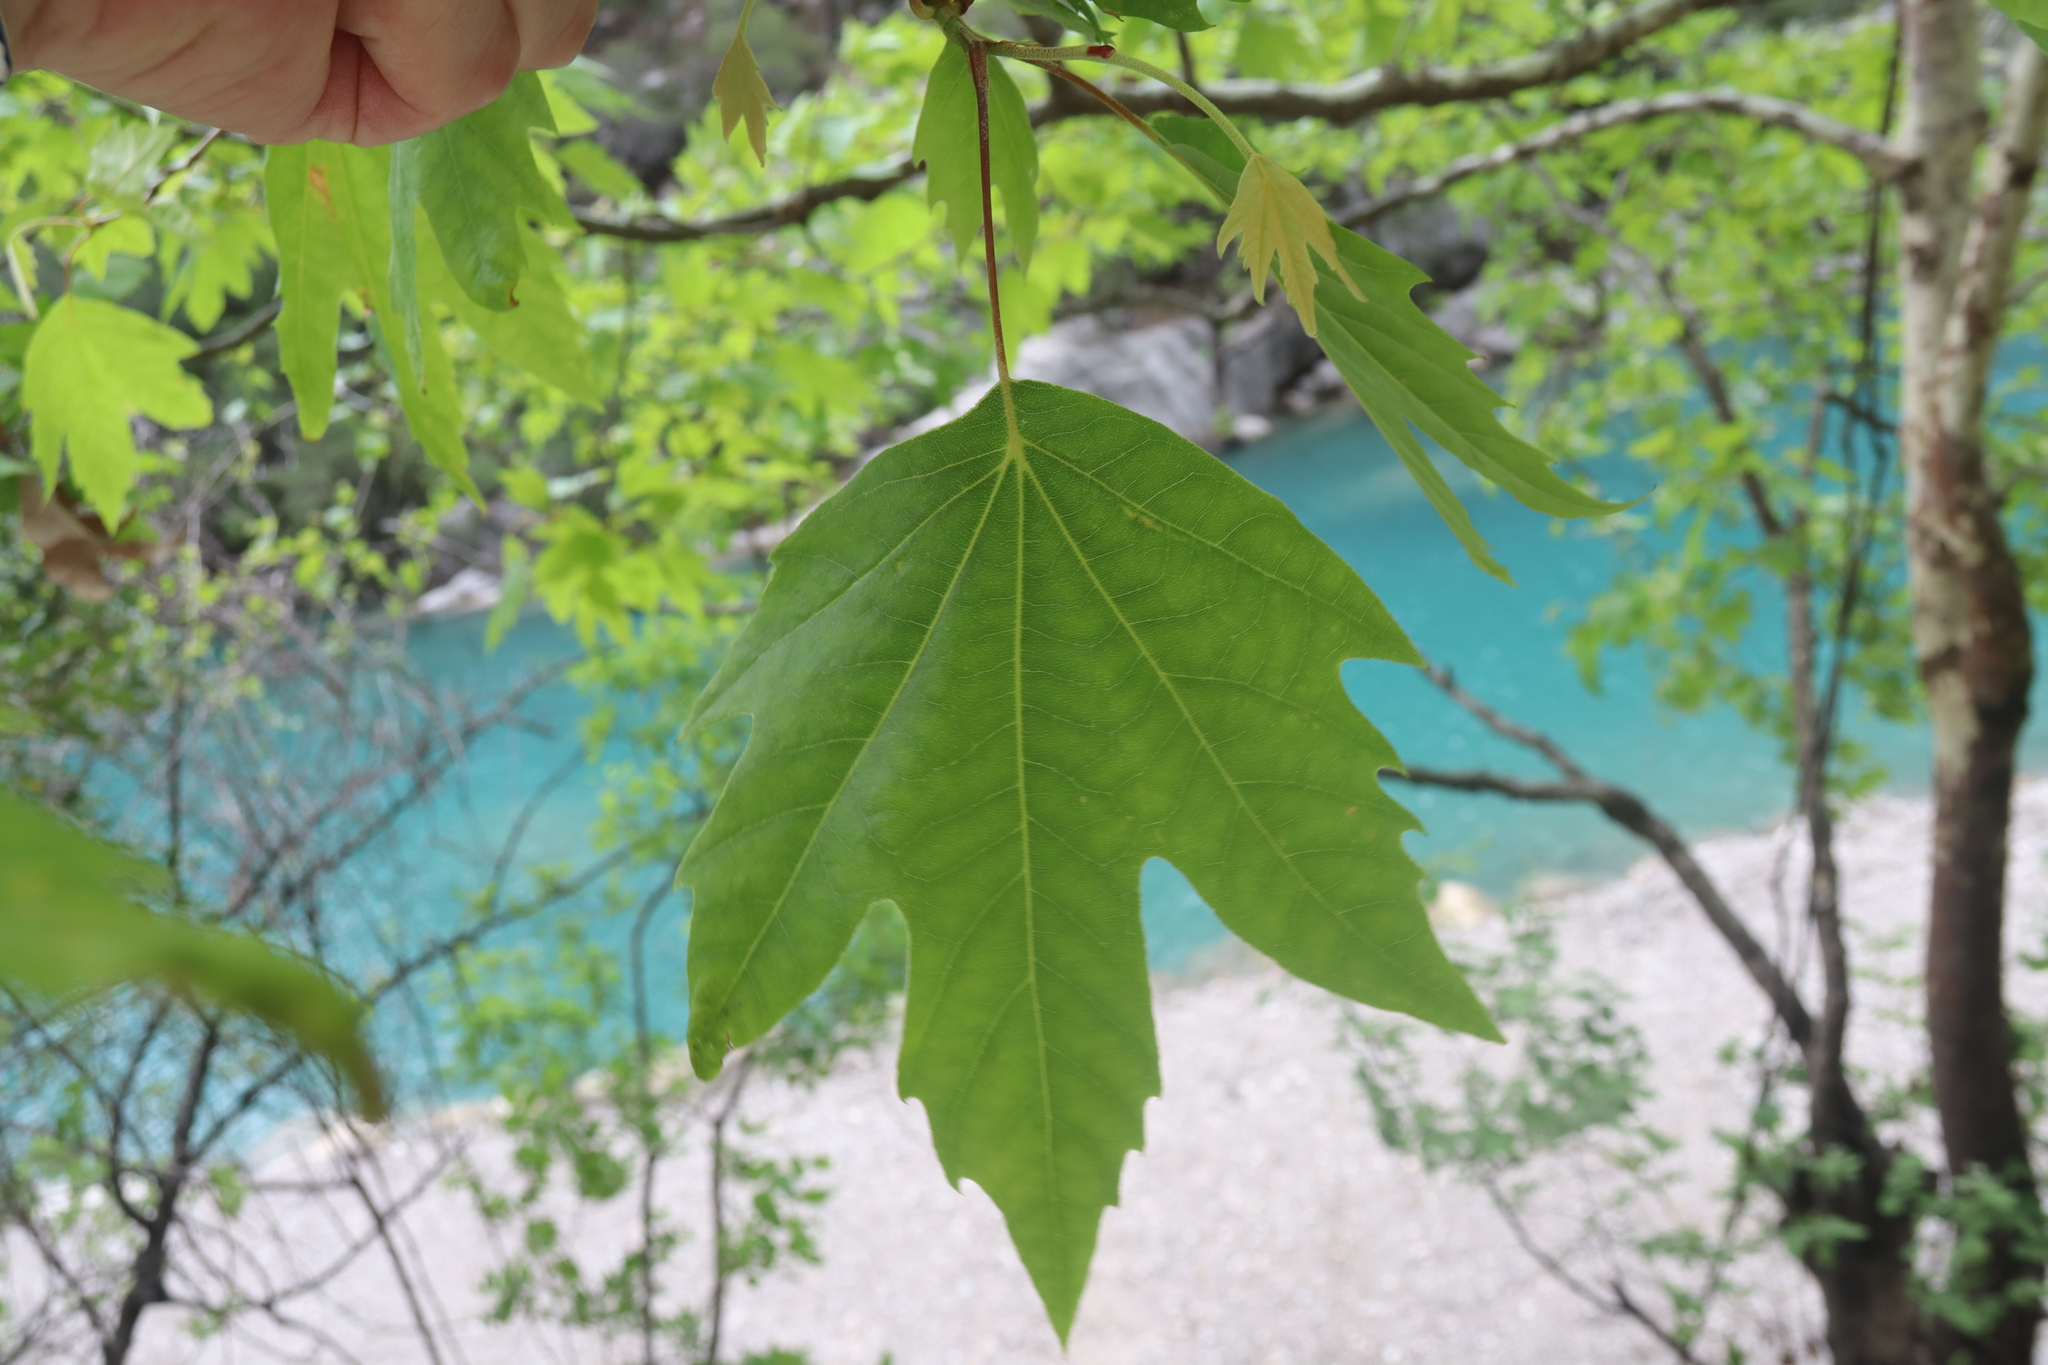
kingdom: Plantae
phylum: Tracheophyta
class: Magnoliopsida
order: Proteales
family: Platanaceae
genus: Platanus
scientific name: Platanus orientalis
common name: Oriental plane
